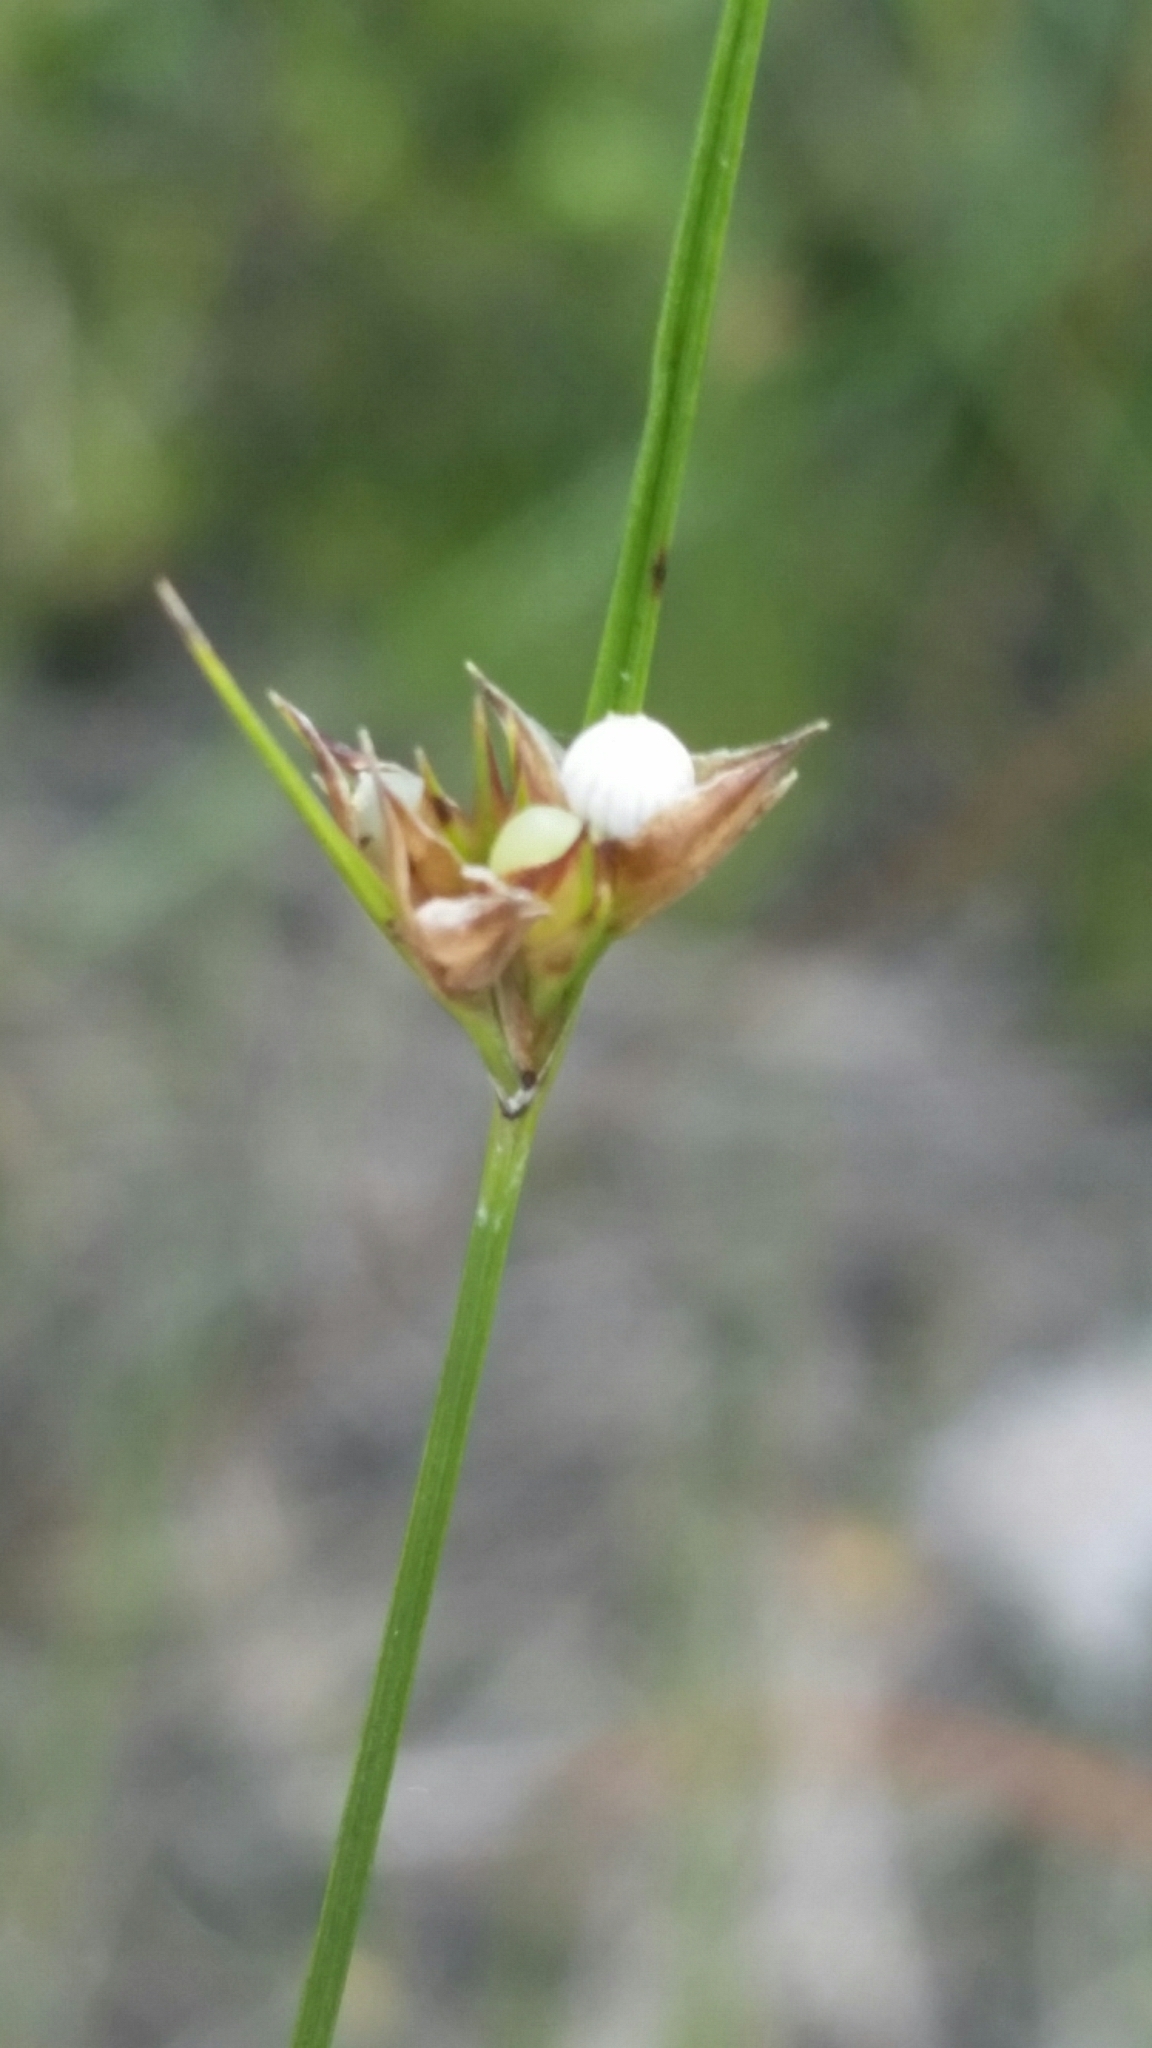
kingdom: Plantae
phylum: Tracheophyta
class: Liliopsida
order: Poales
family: Cyperaceae
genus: Scleria
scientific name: Scleria georgiana
